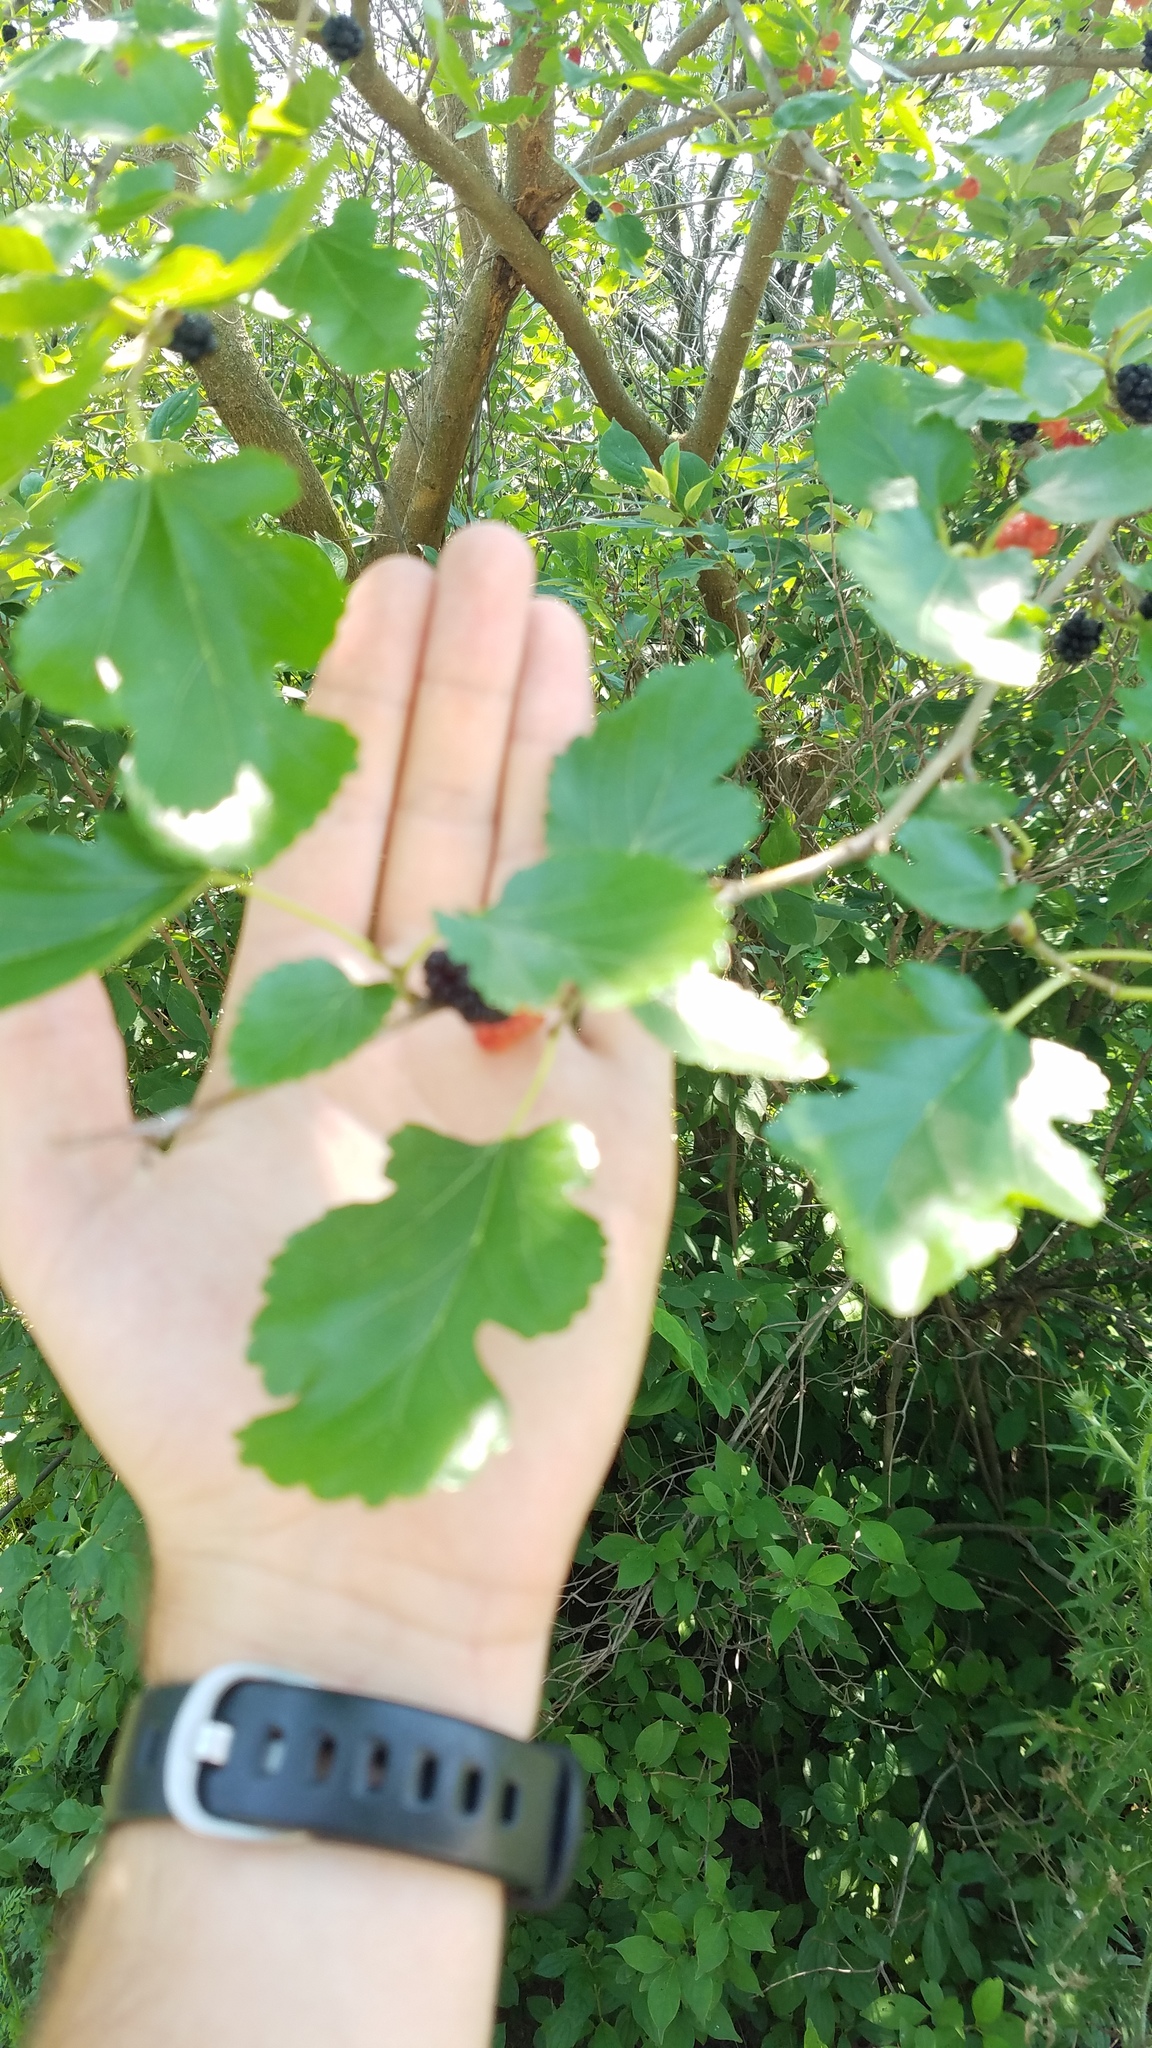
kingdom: Plantae
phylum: Tracheophyta
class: Magnoliopsida
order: Rosales
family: Moraceae
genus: Morus
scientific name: Morus alba
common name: White mulberry
